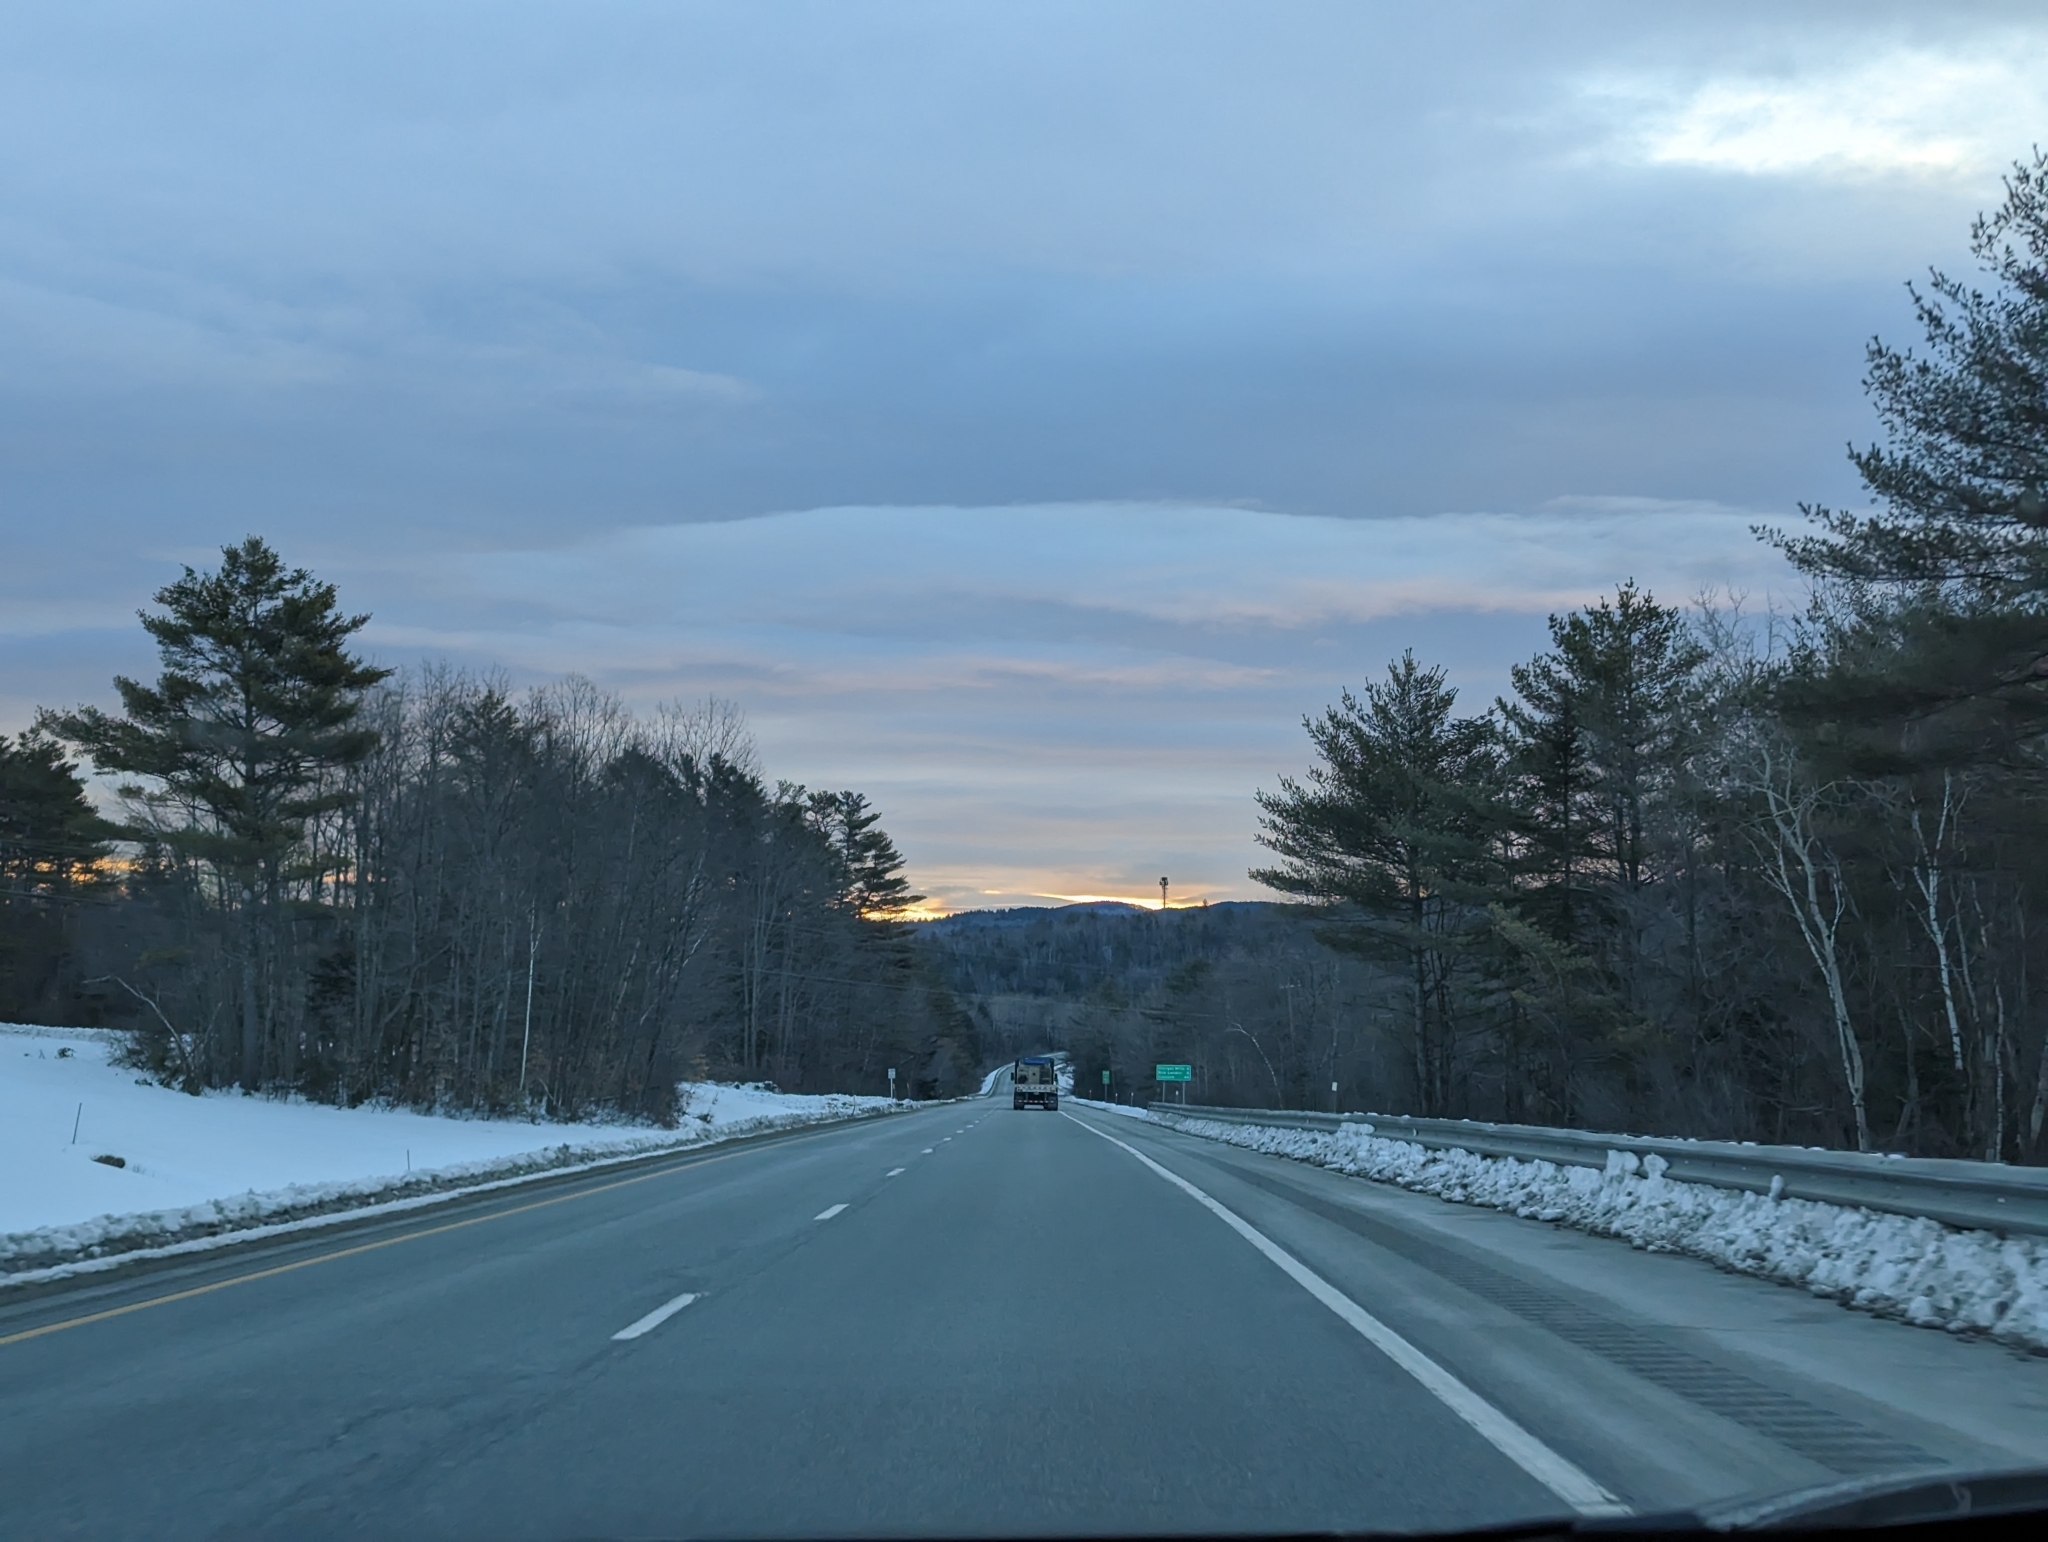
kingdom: Plantae
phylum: Tracheophyta
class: Pinopsida
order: Pinales
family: Pinaceae
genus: Pinus
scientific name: Pinus strobus
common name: Weymouth pine
